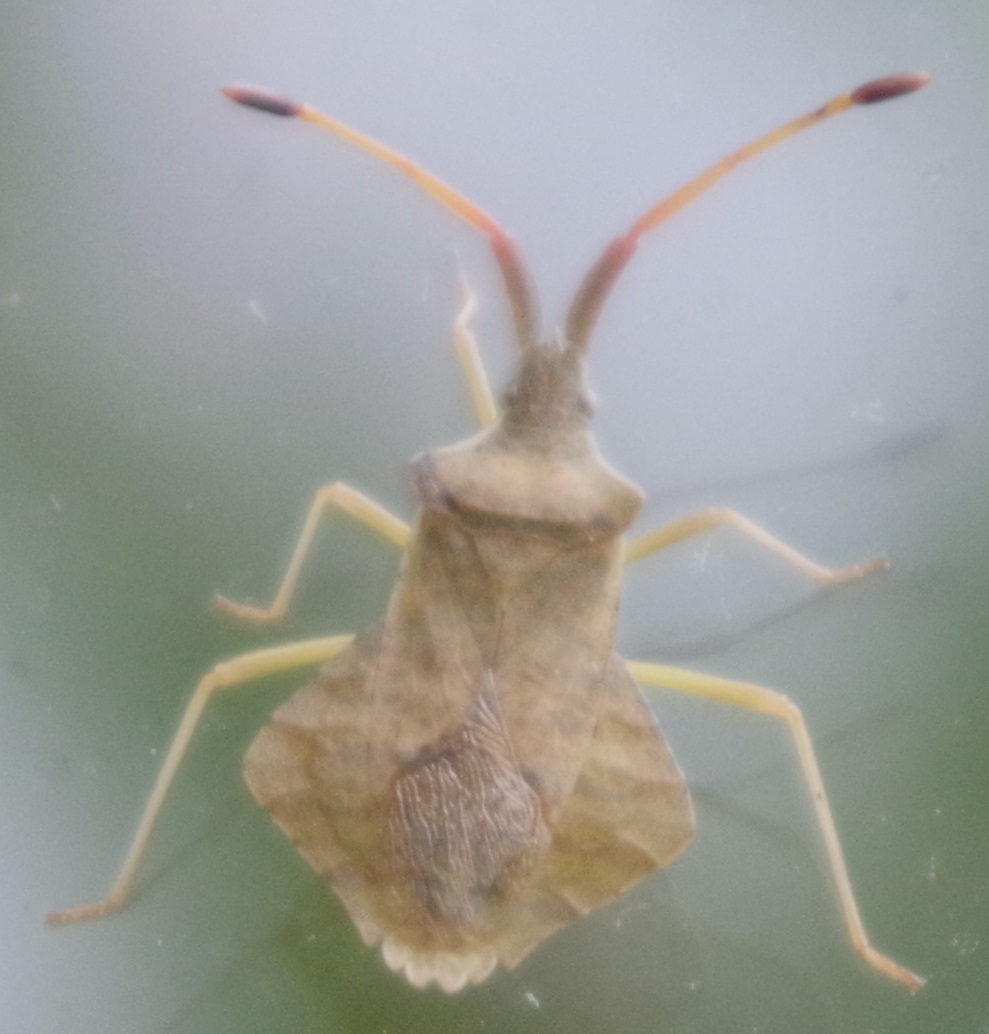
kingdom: Animalia
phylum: Arthropoda
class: Insecta
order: Hemiptera
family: Coreidae
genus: Syromastus
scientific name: Syromastus rhombeus
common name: Rhombic leatherbug
